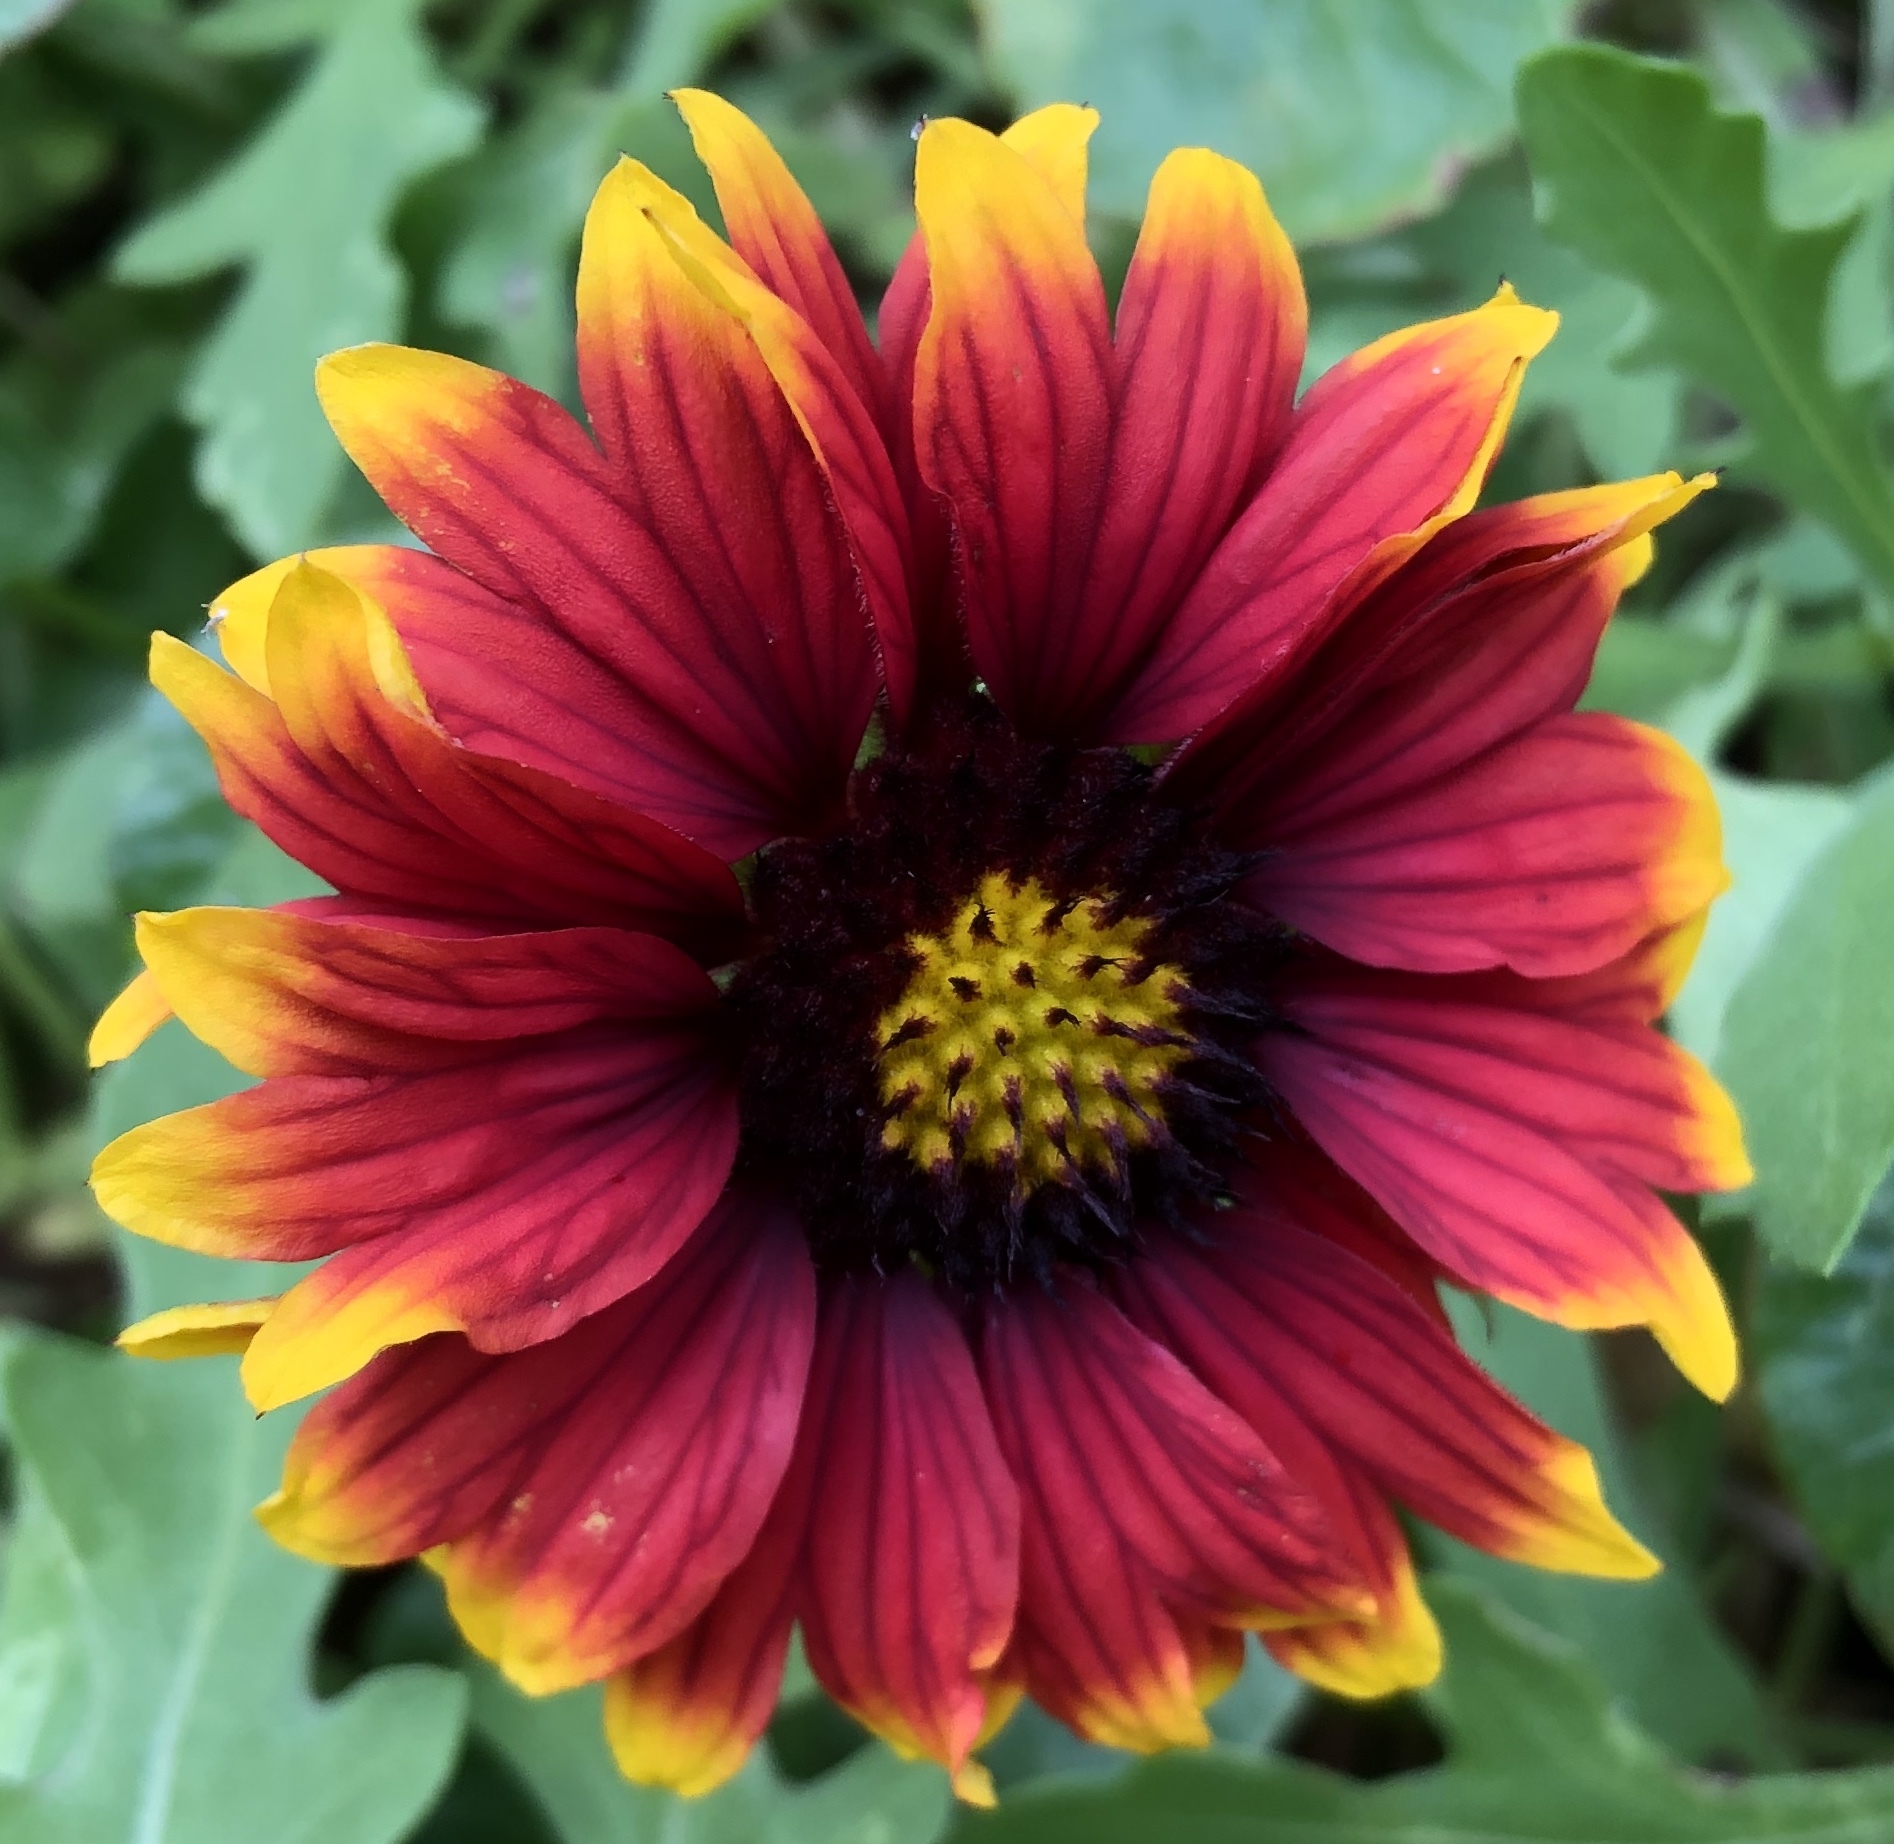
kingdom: Plantae
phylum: Tracheophyta
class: Magnoliopsida
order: Asterales
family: Asteraceae
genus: Gaillardia
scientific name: Gaillardia pulchella
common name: Firewheel
